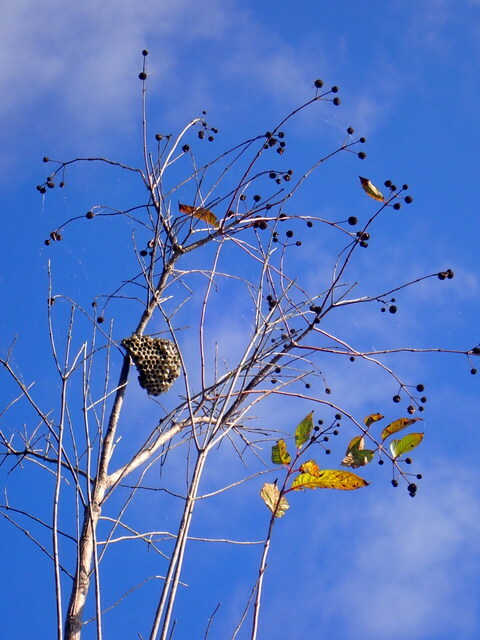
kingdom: Plantae
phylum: Tracheophyta
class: Magnoliopsida
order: Gentianales
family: Rubiaceae
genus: Cephalanthus
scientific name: Cephalanthus occidentalis
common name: Button-willow
